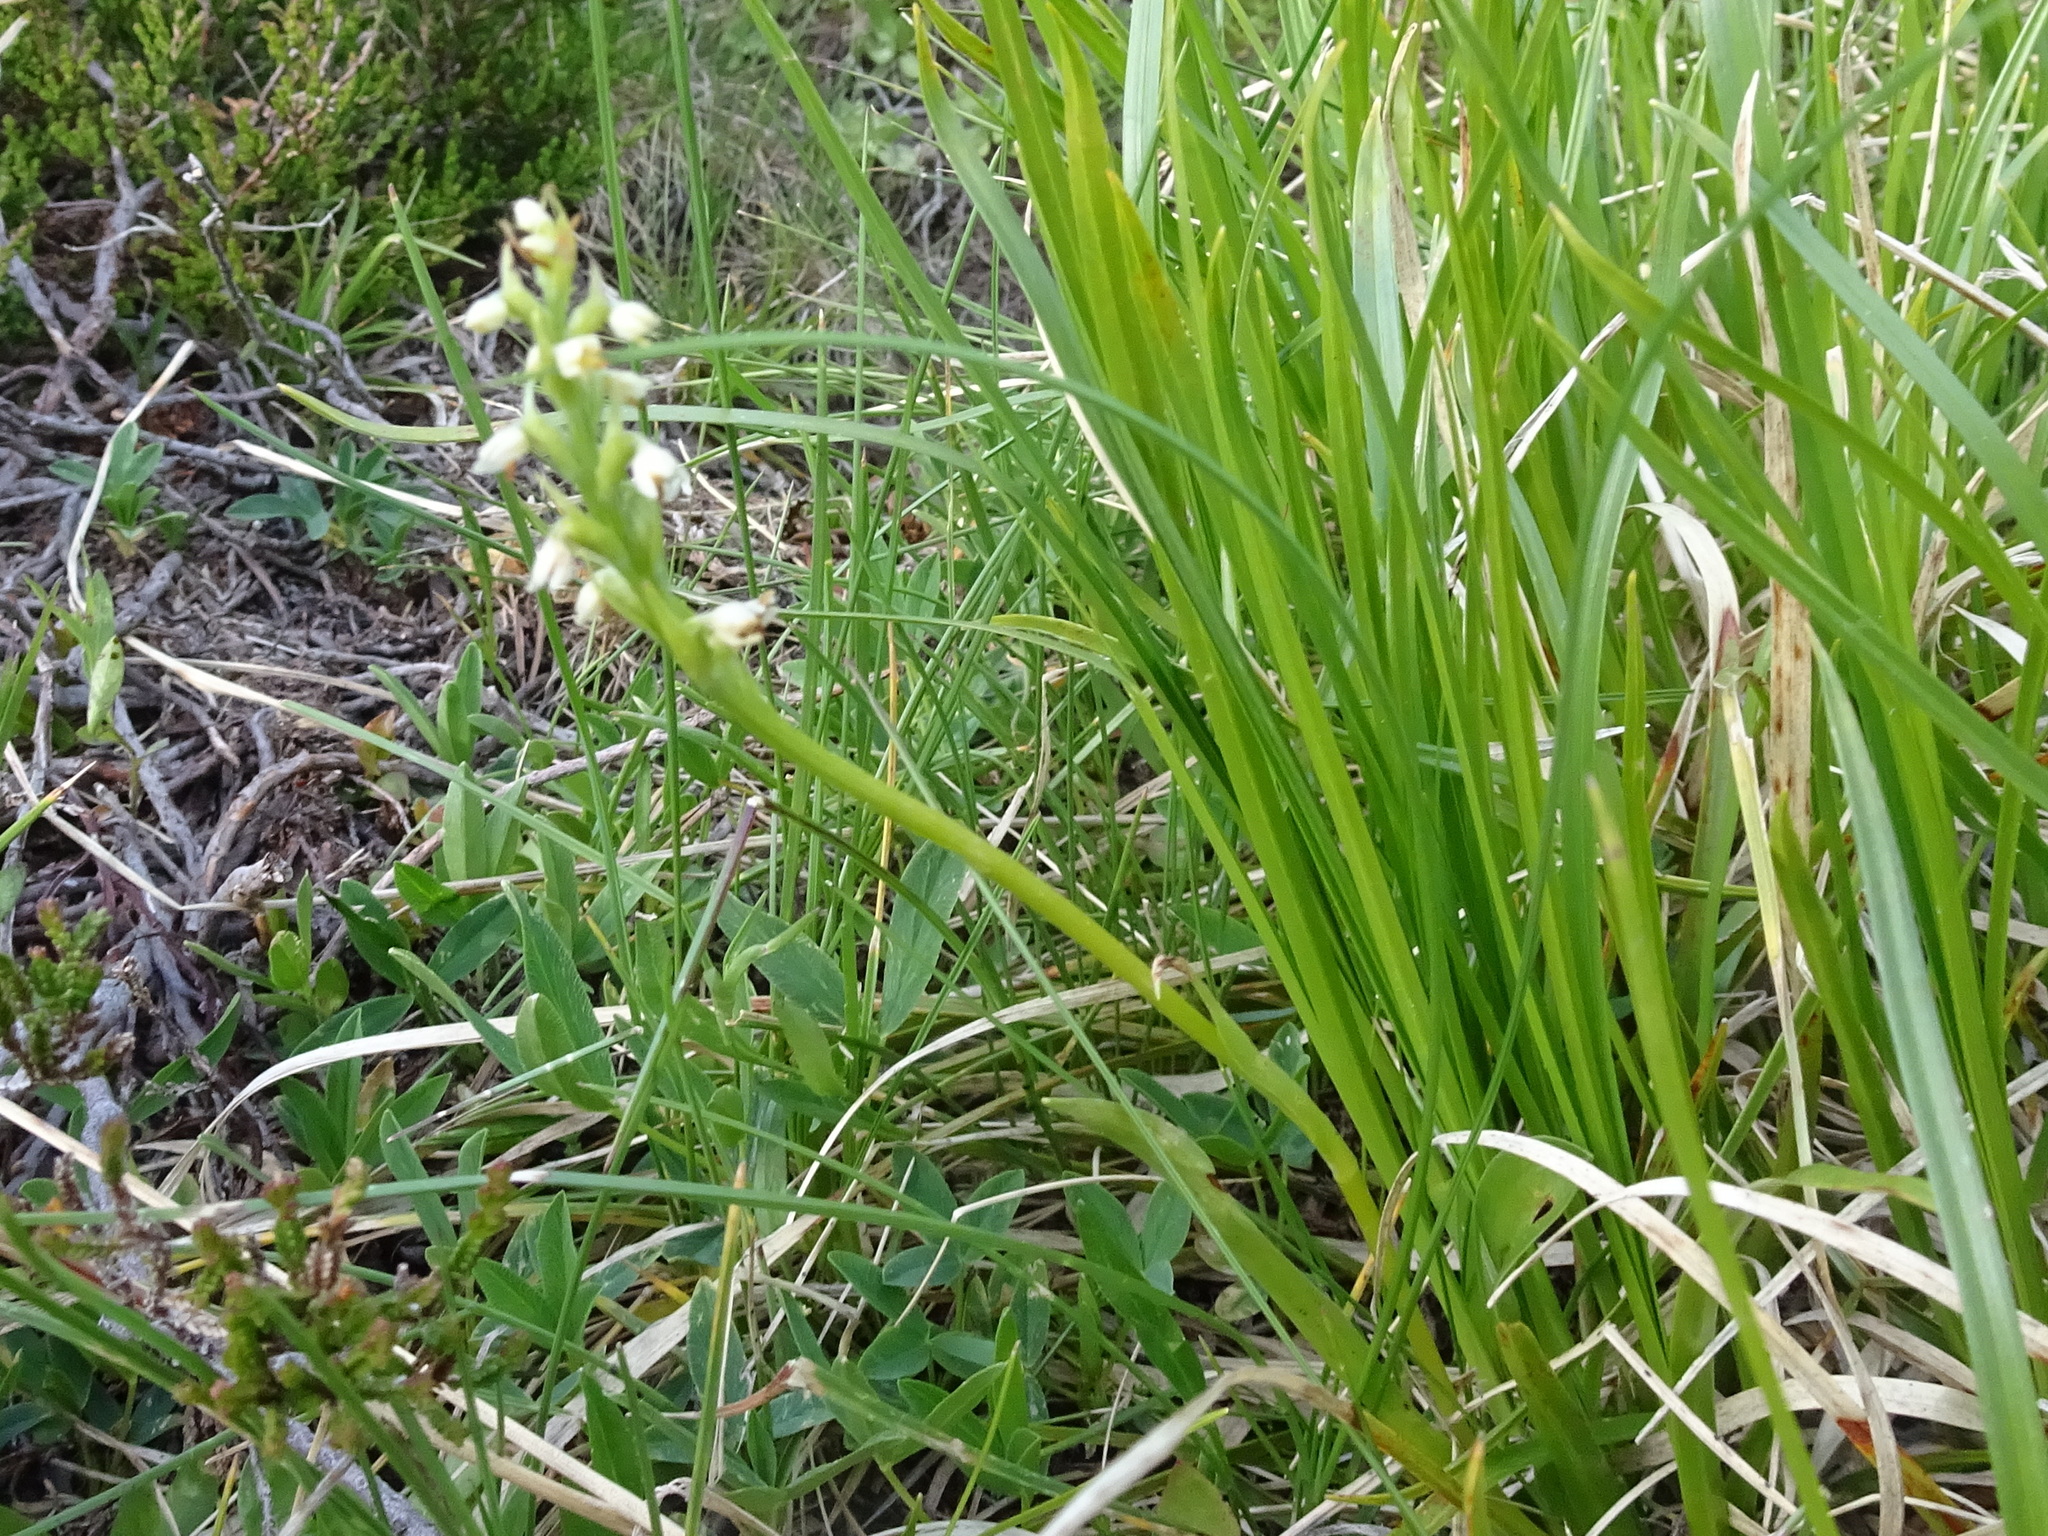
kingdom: Plantae
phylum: Tracheophyta
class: Liliopsida
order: Asparagales
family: Orchidaceae
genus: Pseudorchis
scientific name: Pseudorchis albida
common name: Small-white orchid
